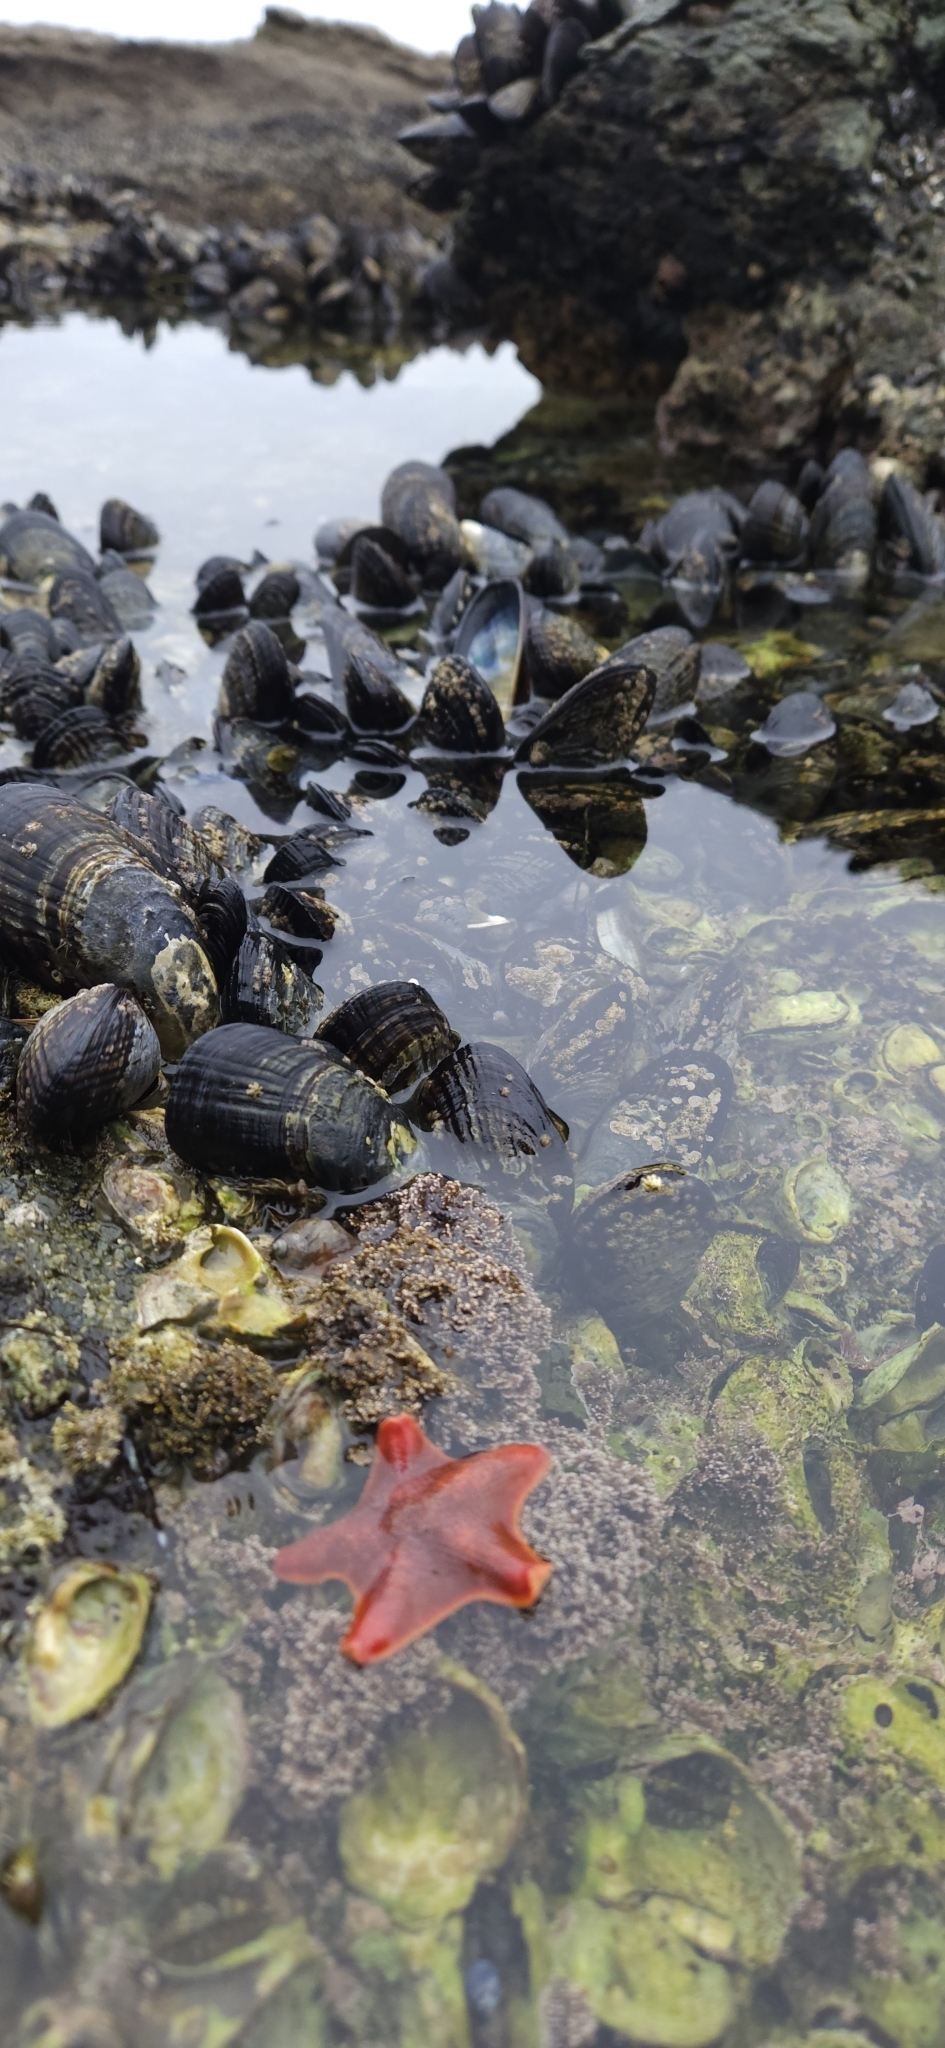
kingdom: Animalia
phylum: Echinodermata
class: Asteroidea
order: Valvatida
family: Asterinidae
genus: Patiria
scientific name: Patiria miniata
